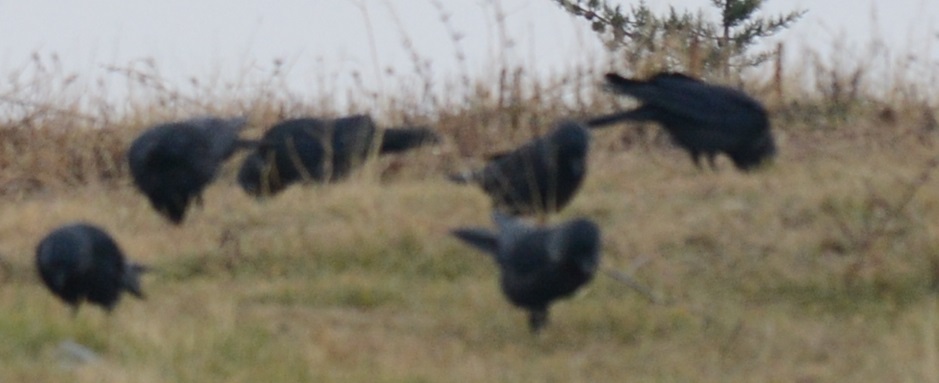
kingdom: Animalia
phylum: Chordata
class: Aves
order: Passeriformes
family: Corvidae
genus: Coloeus
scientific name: Coloeus monedula
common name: Western jackdaw
